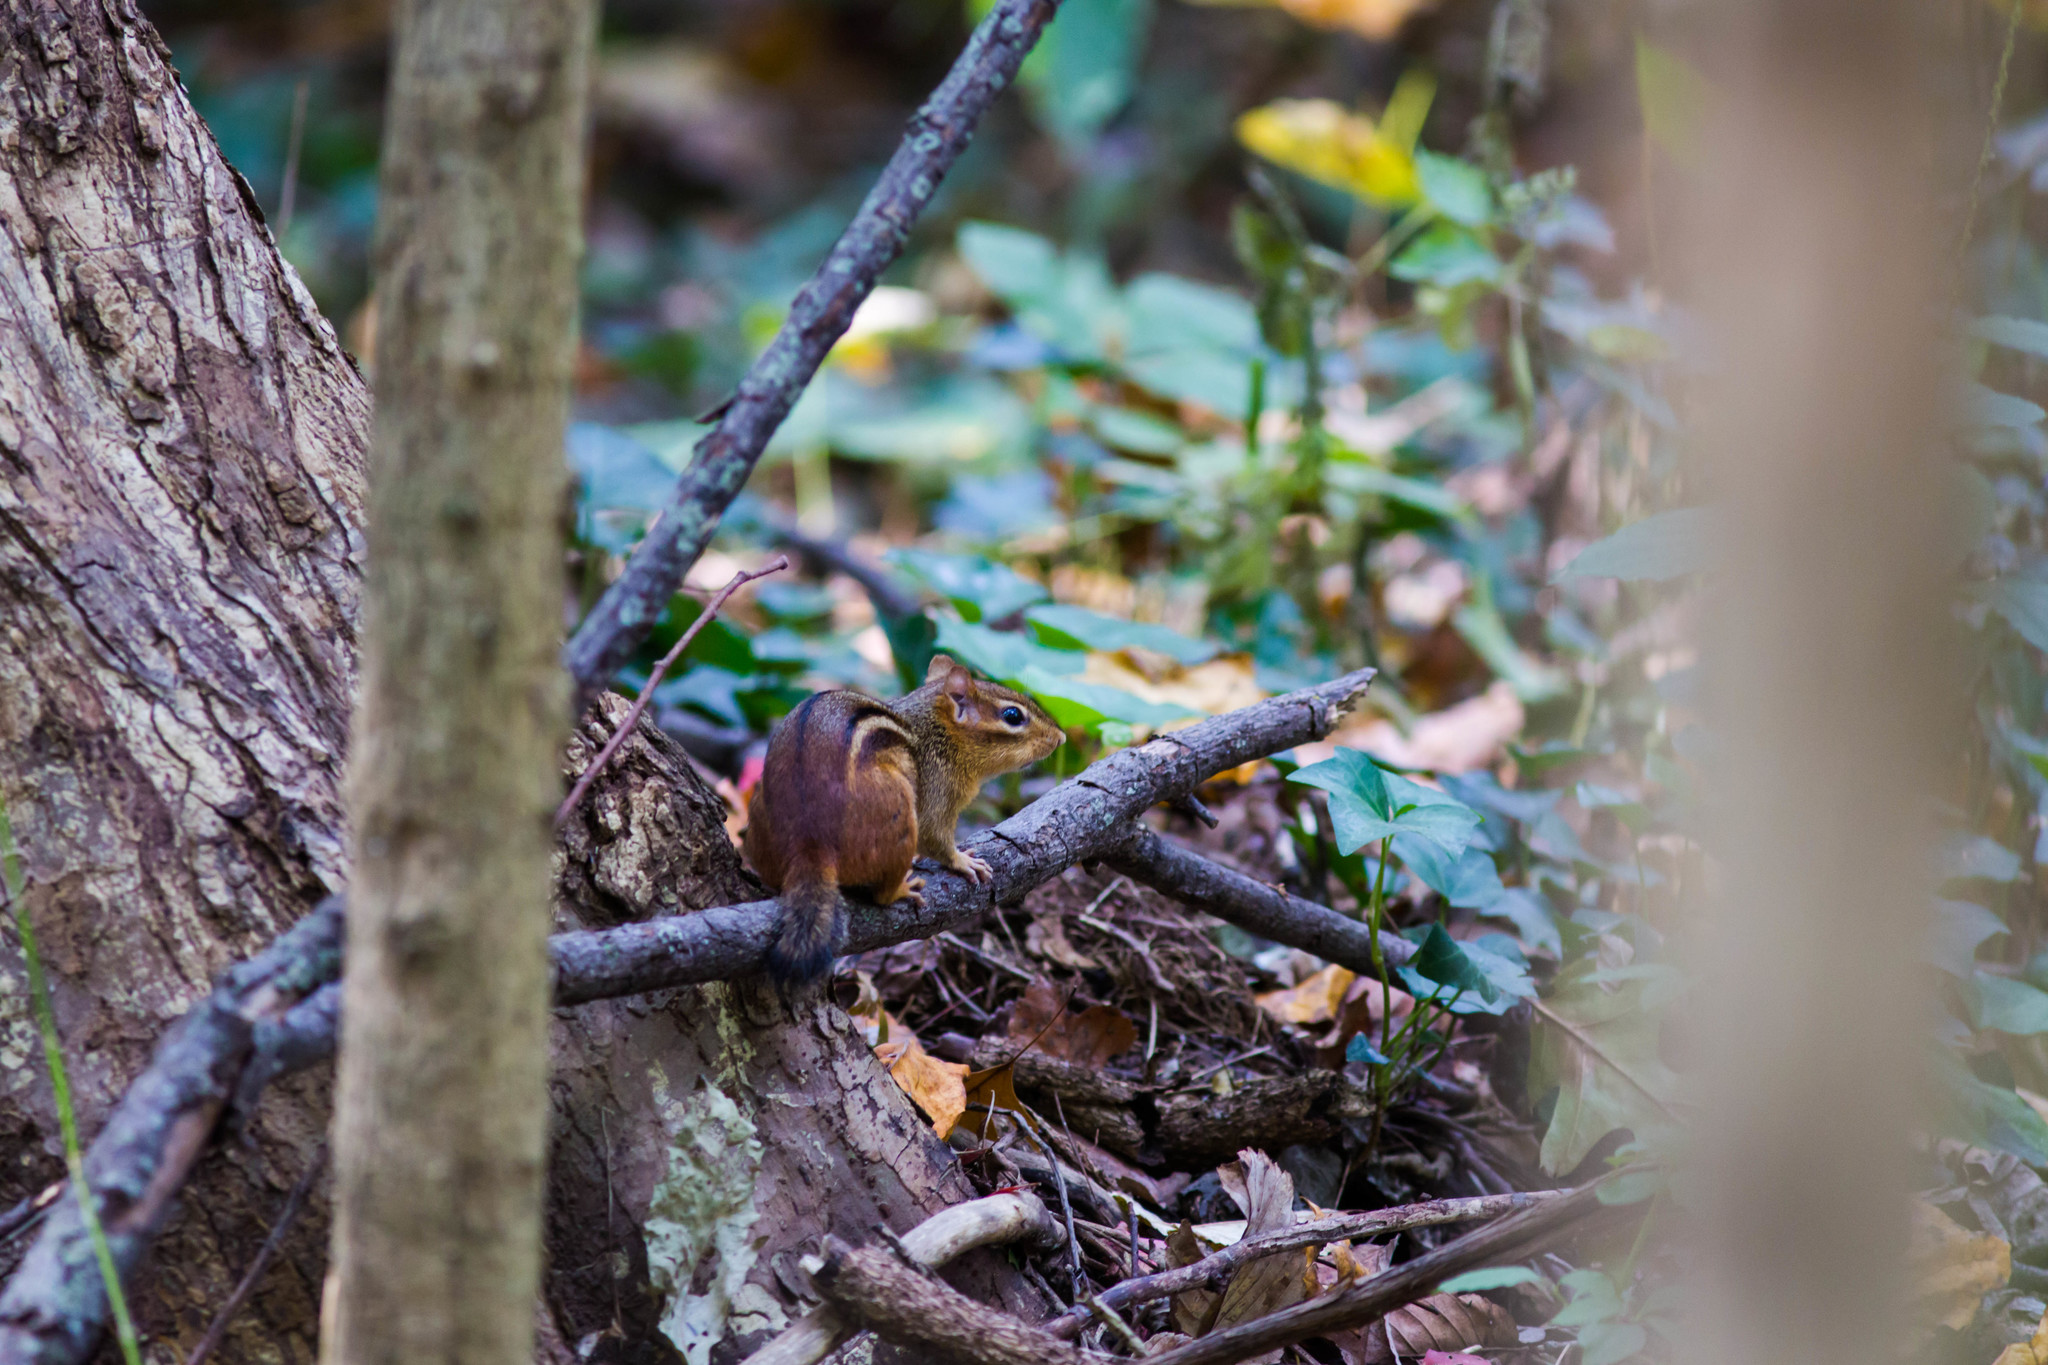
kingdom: Animalia
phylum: Chordata
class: Mammalia
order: Rodentia
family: Sciuridae
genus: Tamias
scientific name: Tamias striatus
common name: Eastern chipmunk
